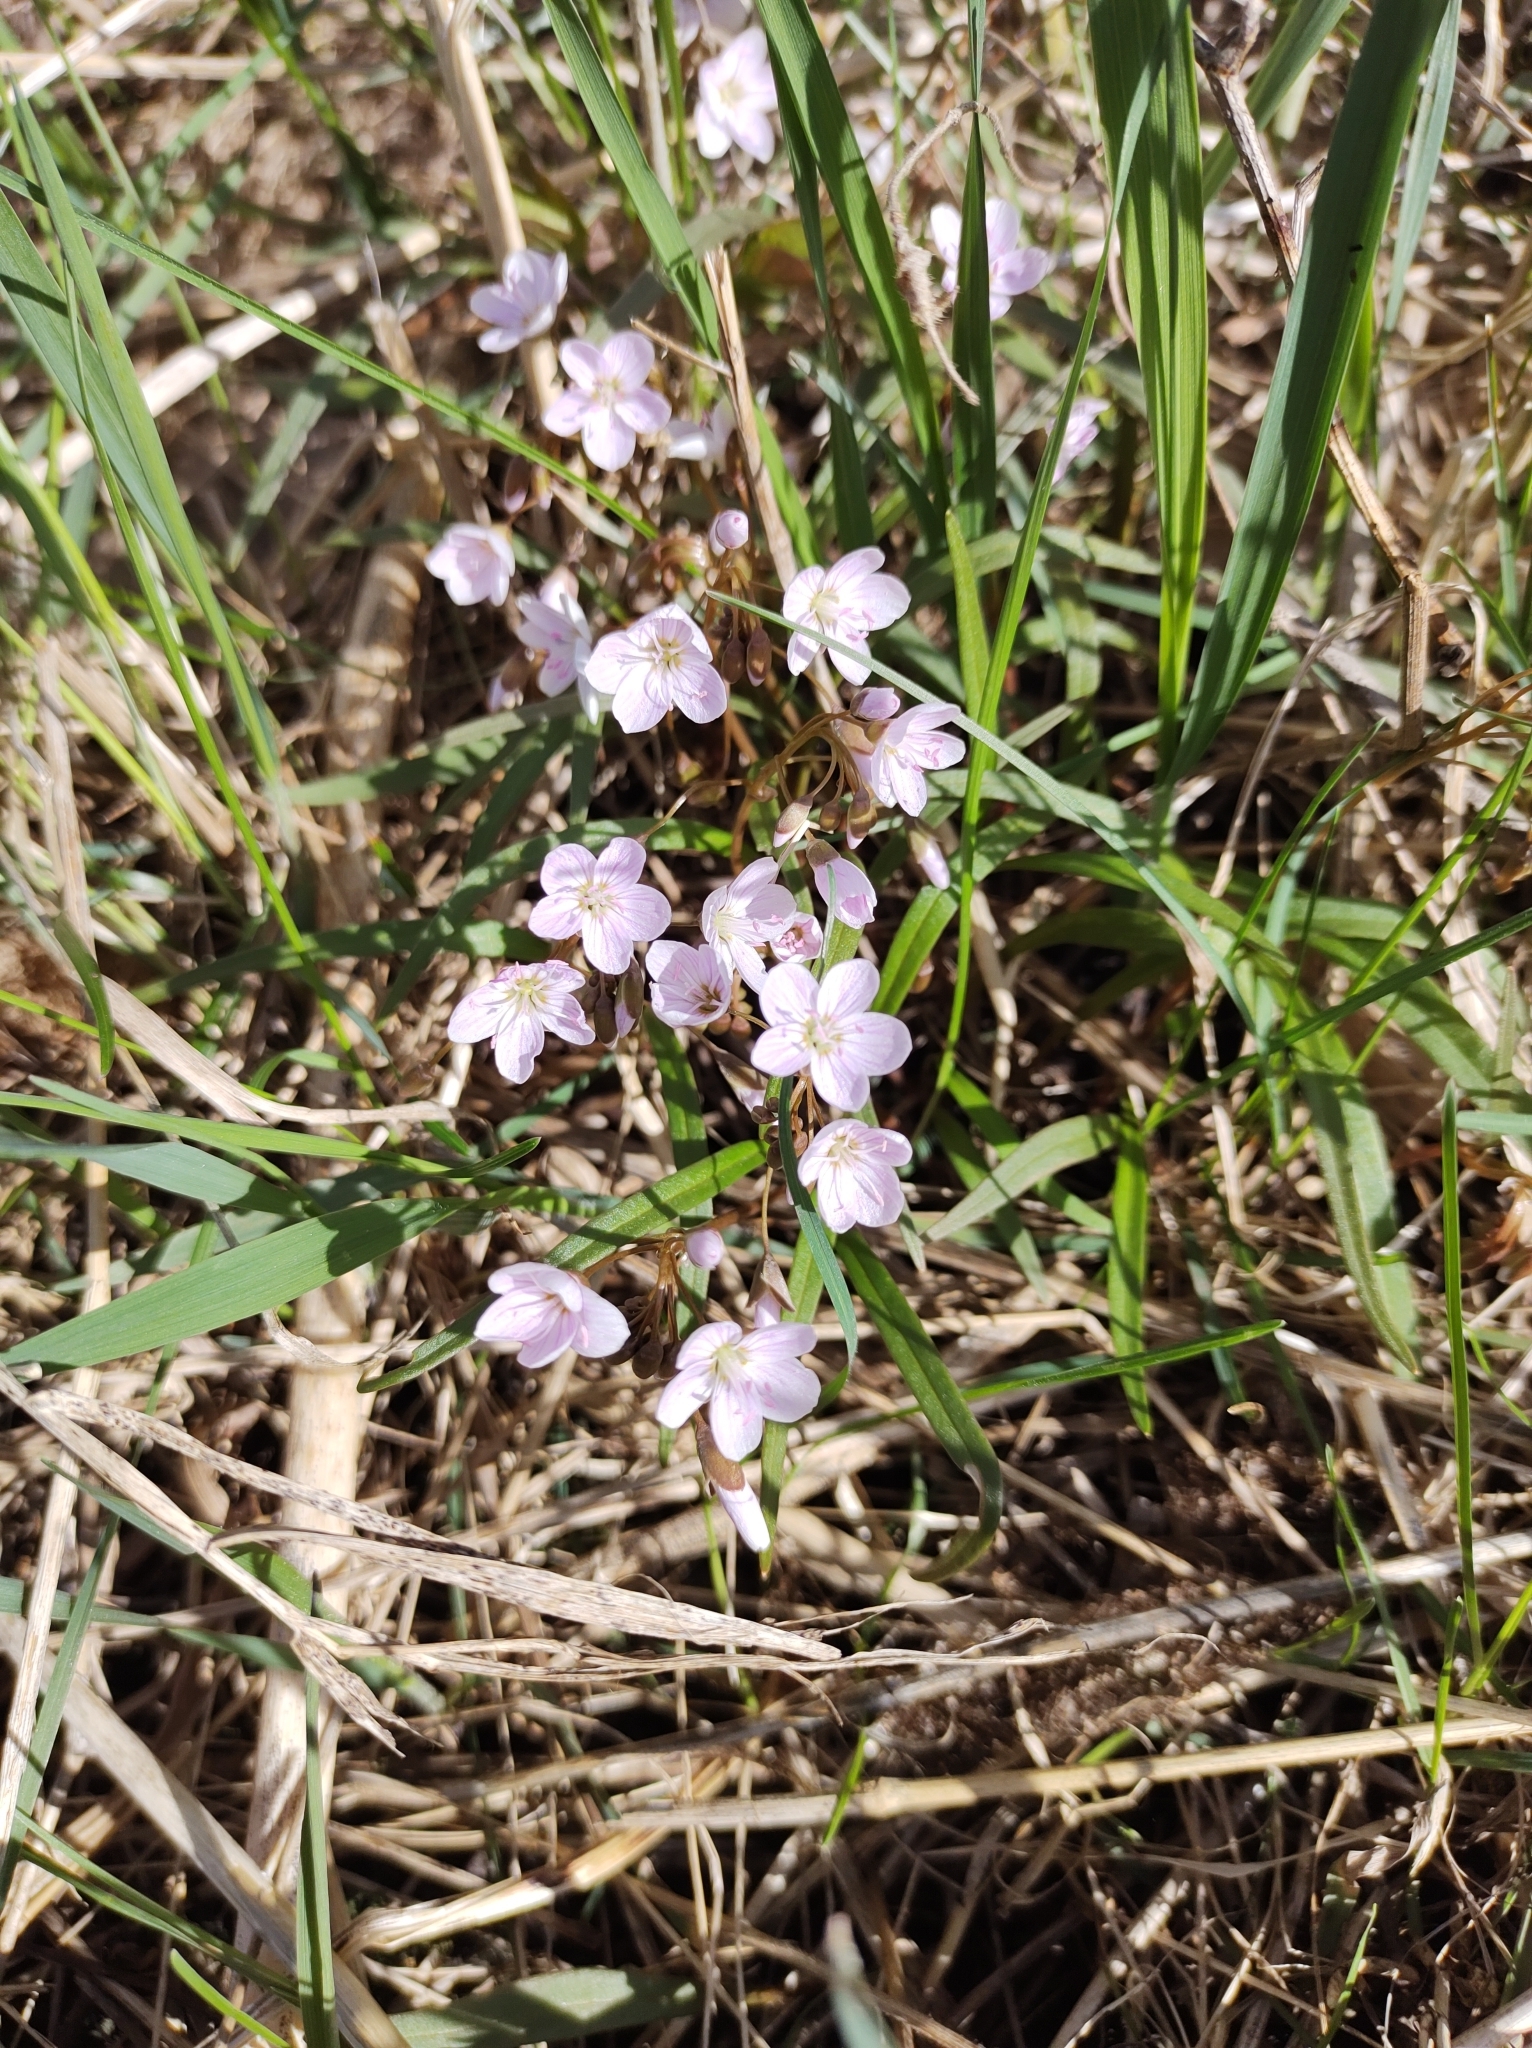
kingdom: Plantae
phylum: Tracheophyta
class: Magnoliopsida
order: Caryophyllales
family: Montiaceae
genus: Claytonia
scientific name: Claytonia virginica
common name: Virginia springbeauty
